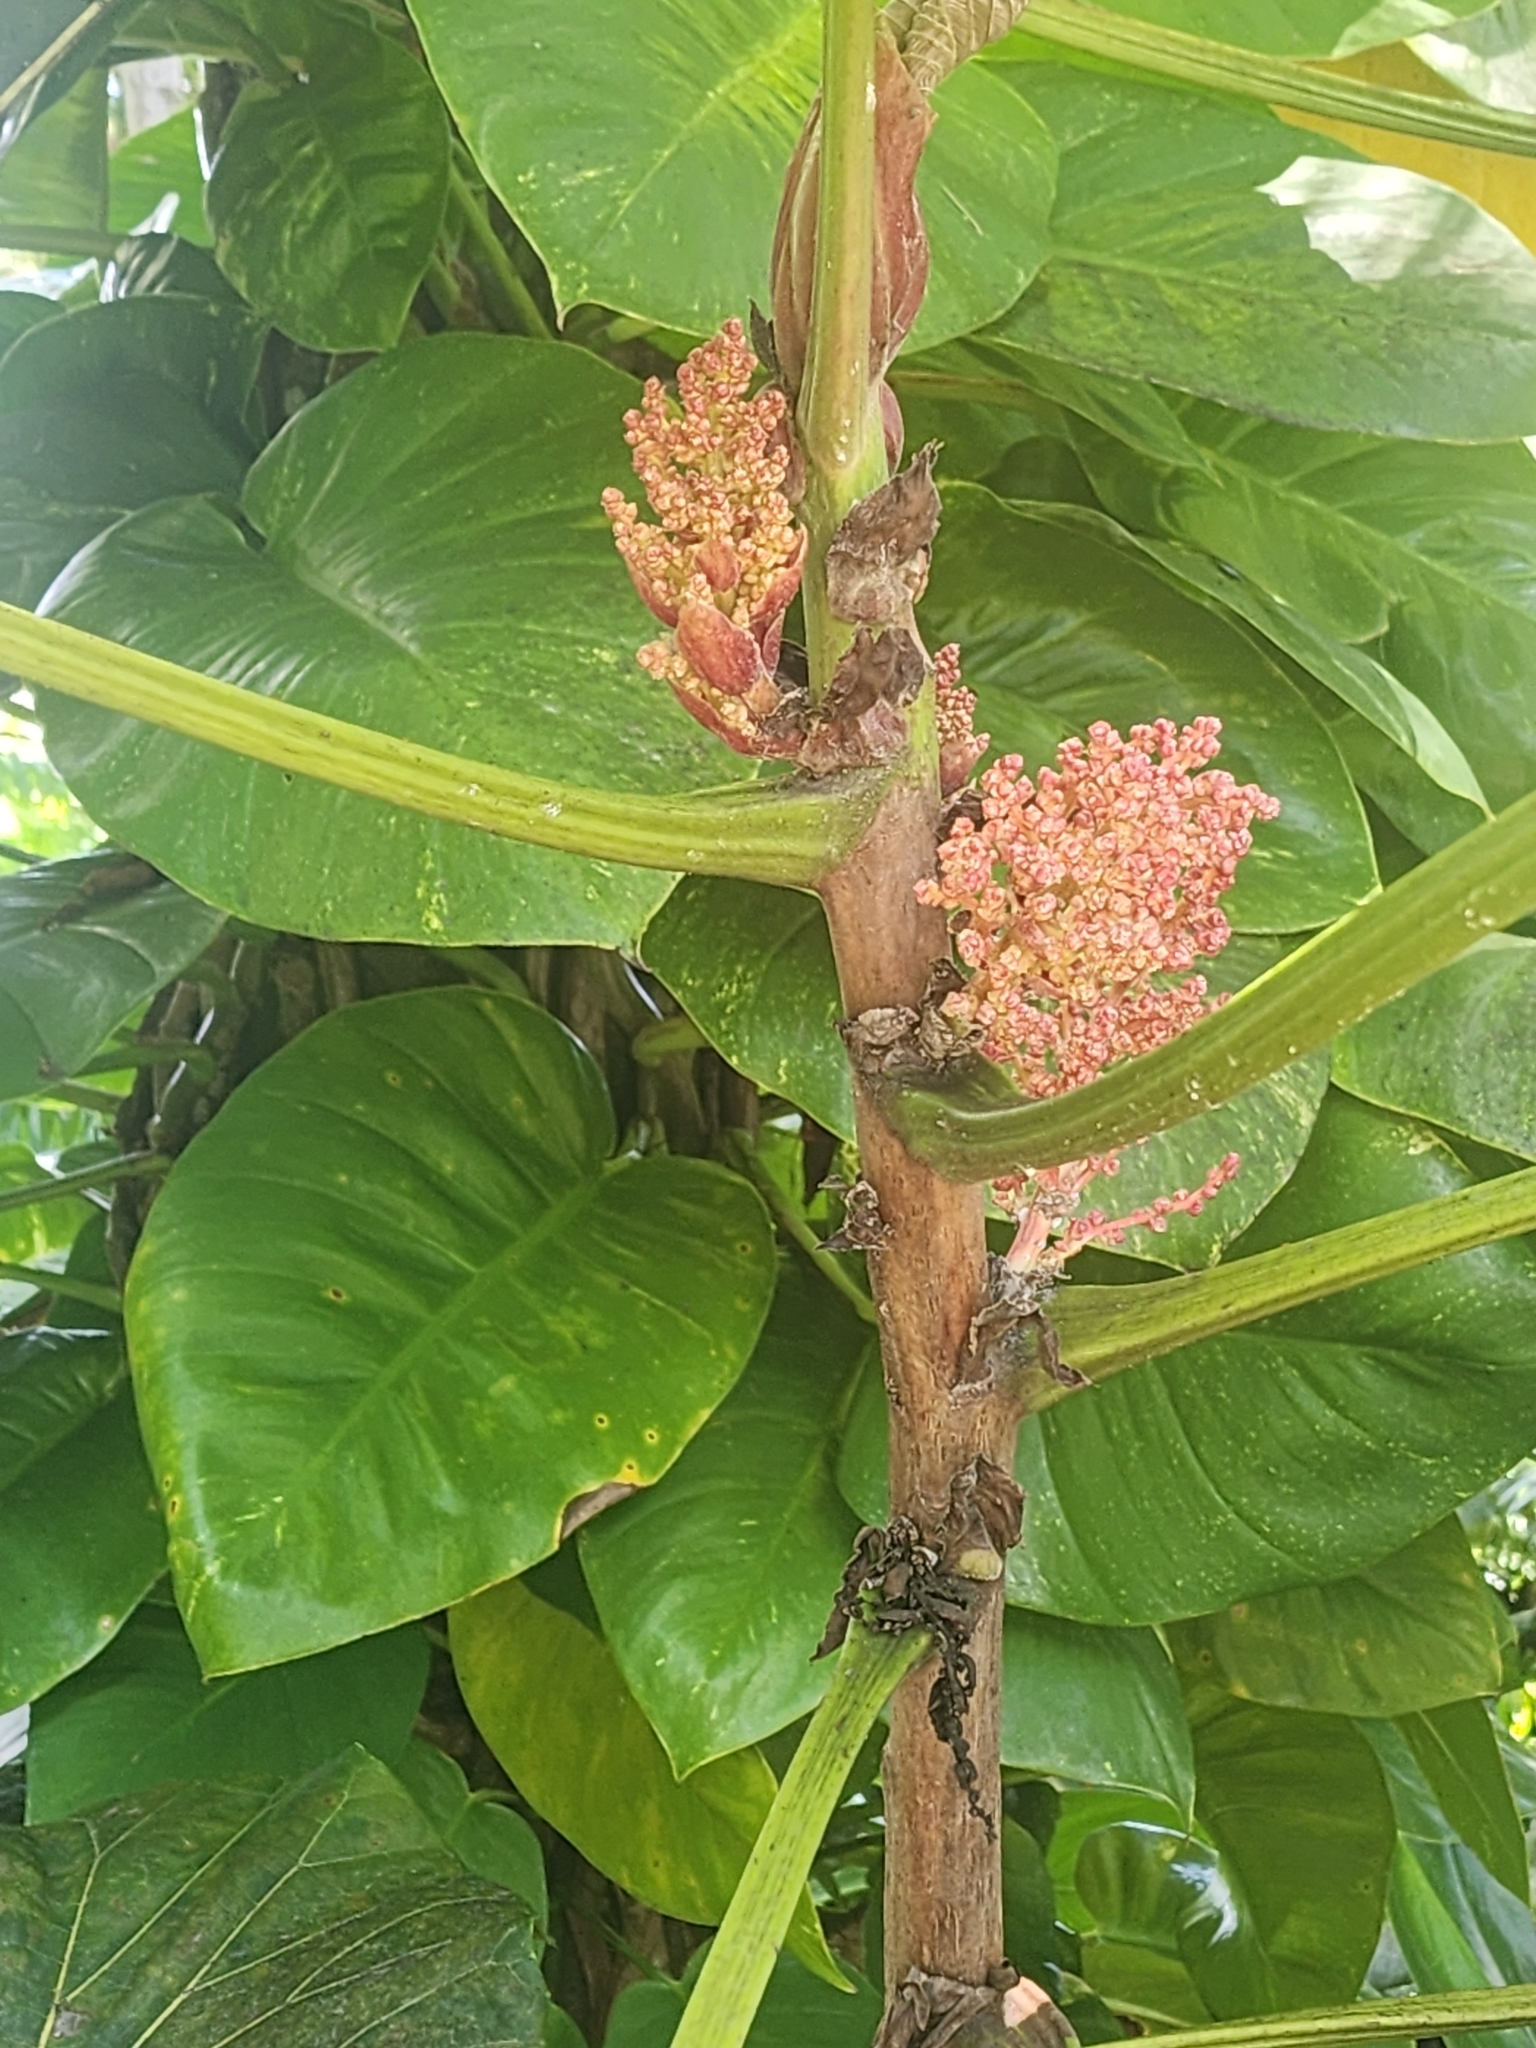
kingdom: Plantae
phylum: Tracheophyta
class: Magnoliopsida
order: Malpighiales
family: Euphorbiaceae
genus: Macaranga
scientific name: Macaranga mappa
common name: Pengua
